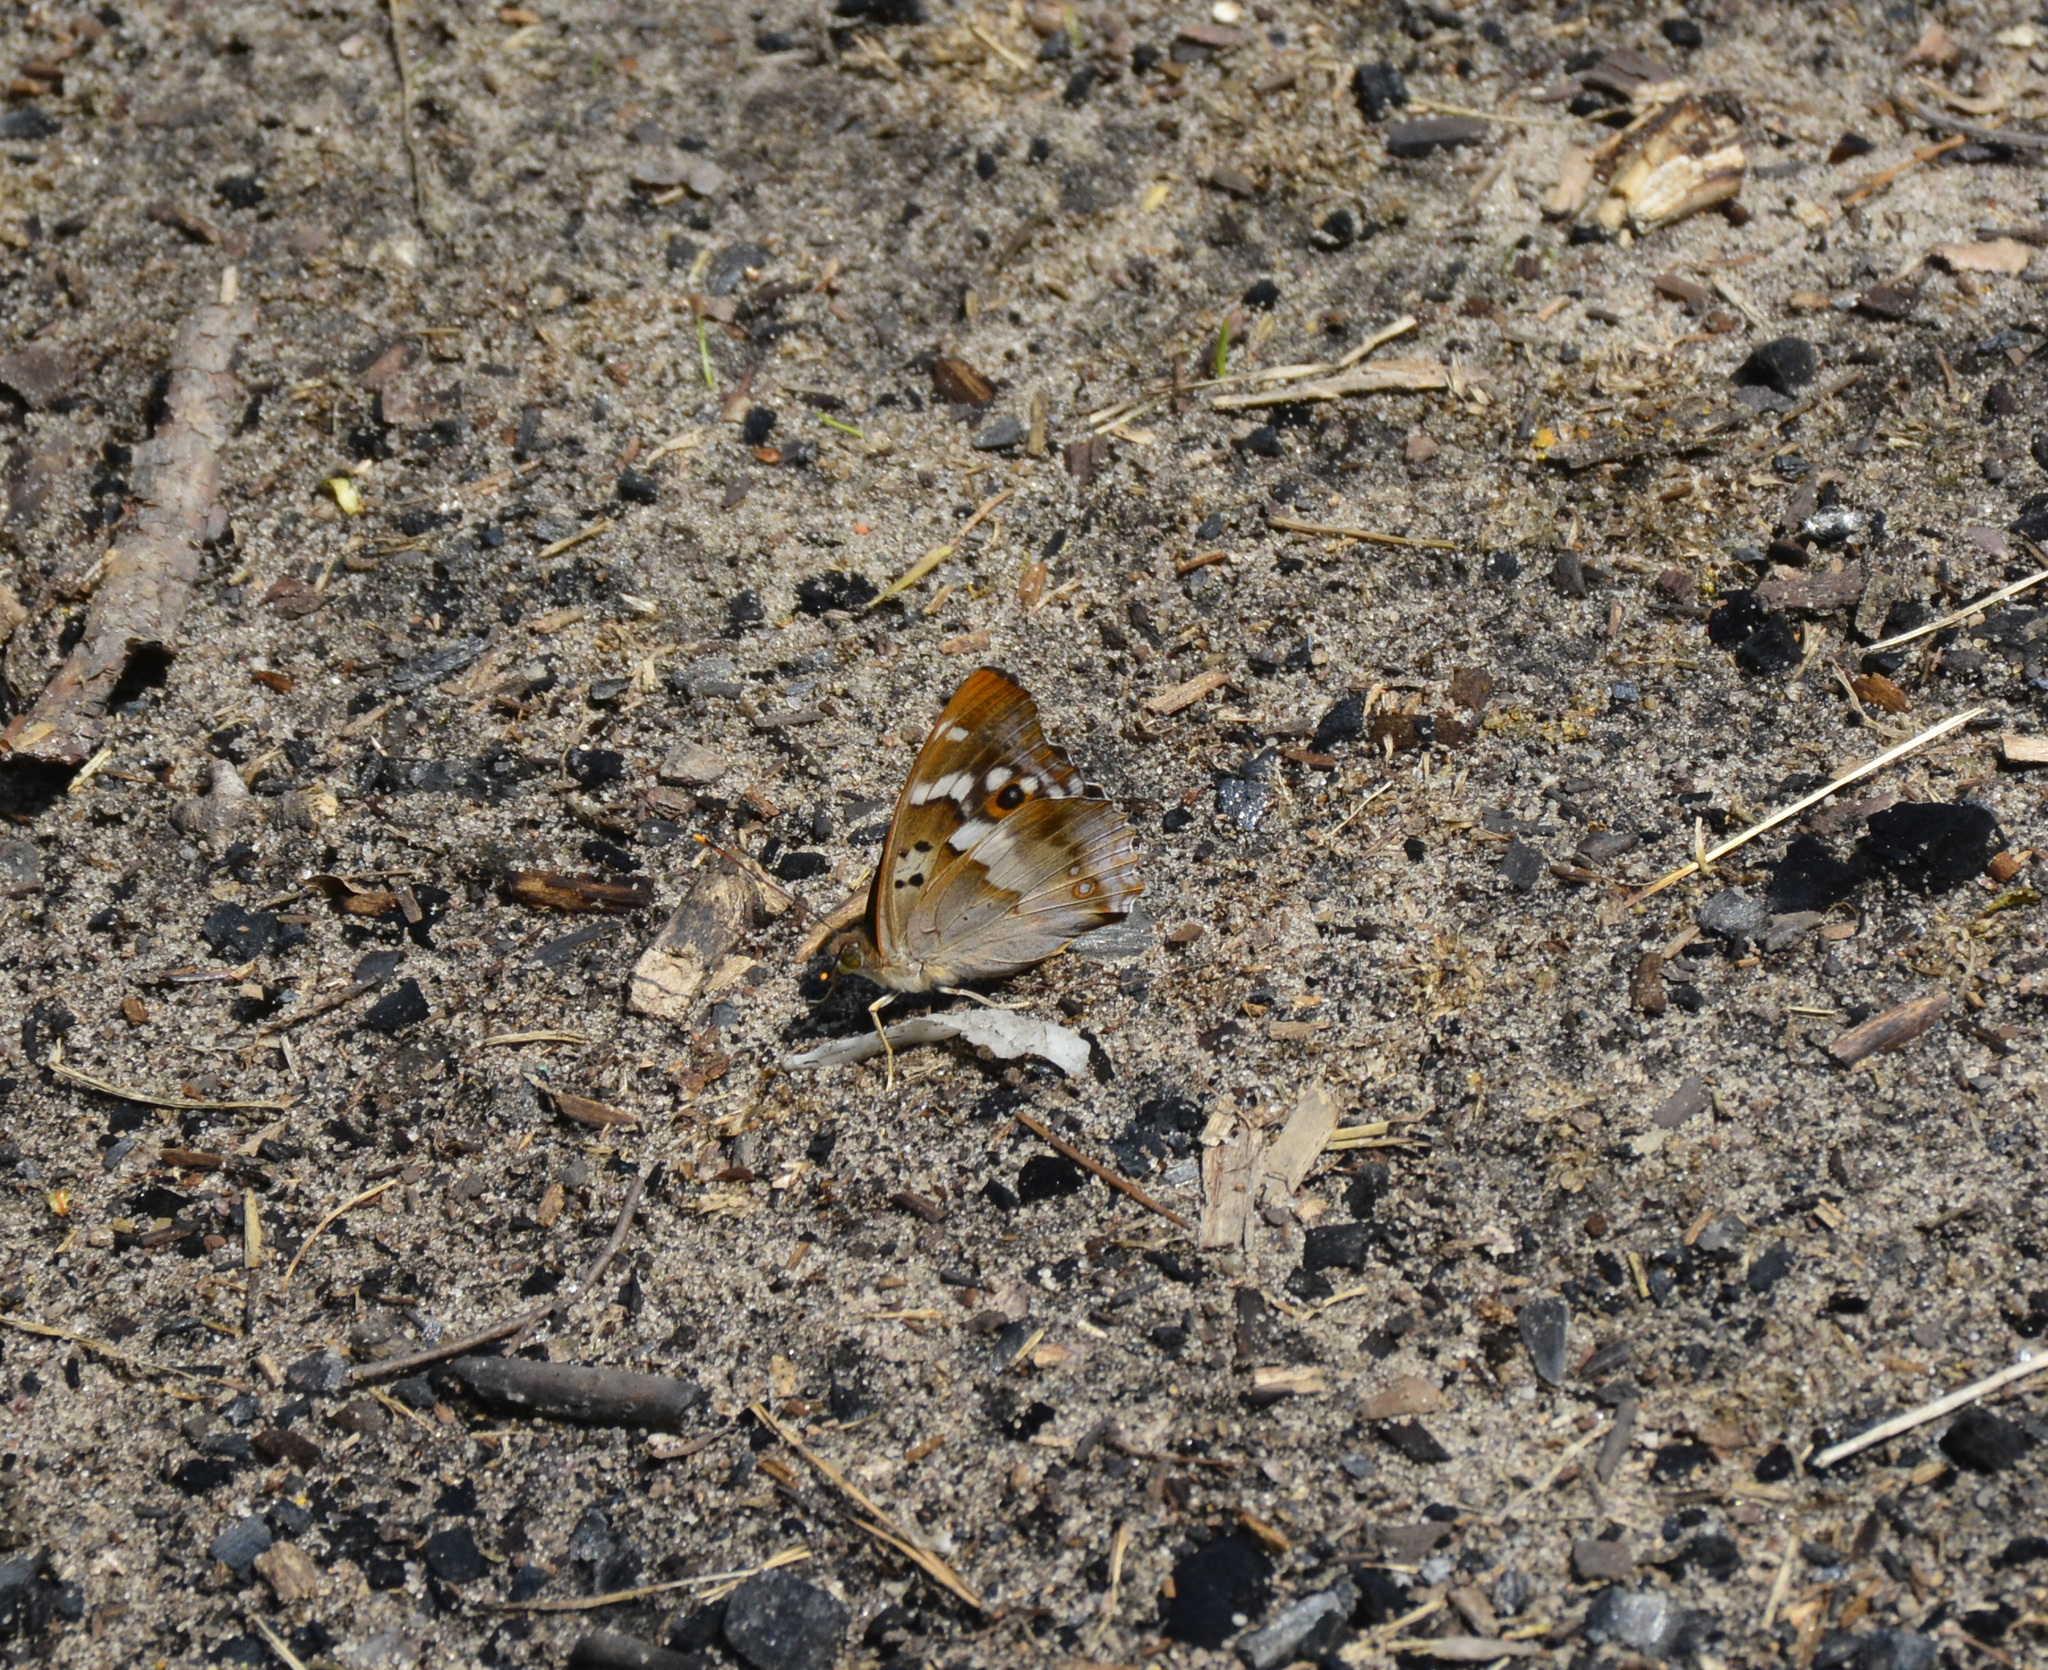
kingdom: Animalia
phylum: Arthropoda
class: Insecta
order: Lepidoptera
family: Nymphalidae
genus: Apatura
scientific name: Apatura ilia
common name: Lesser purple emperor
